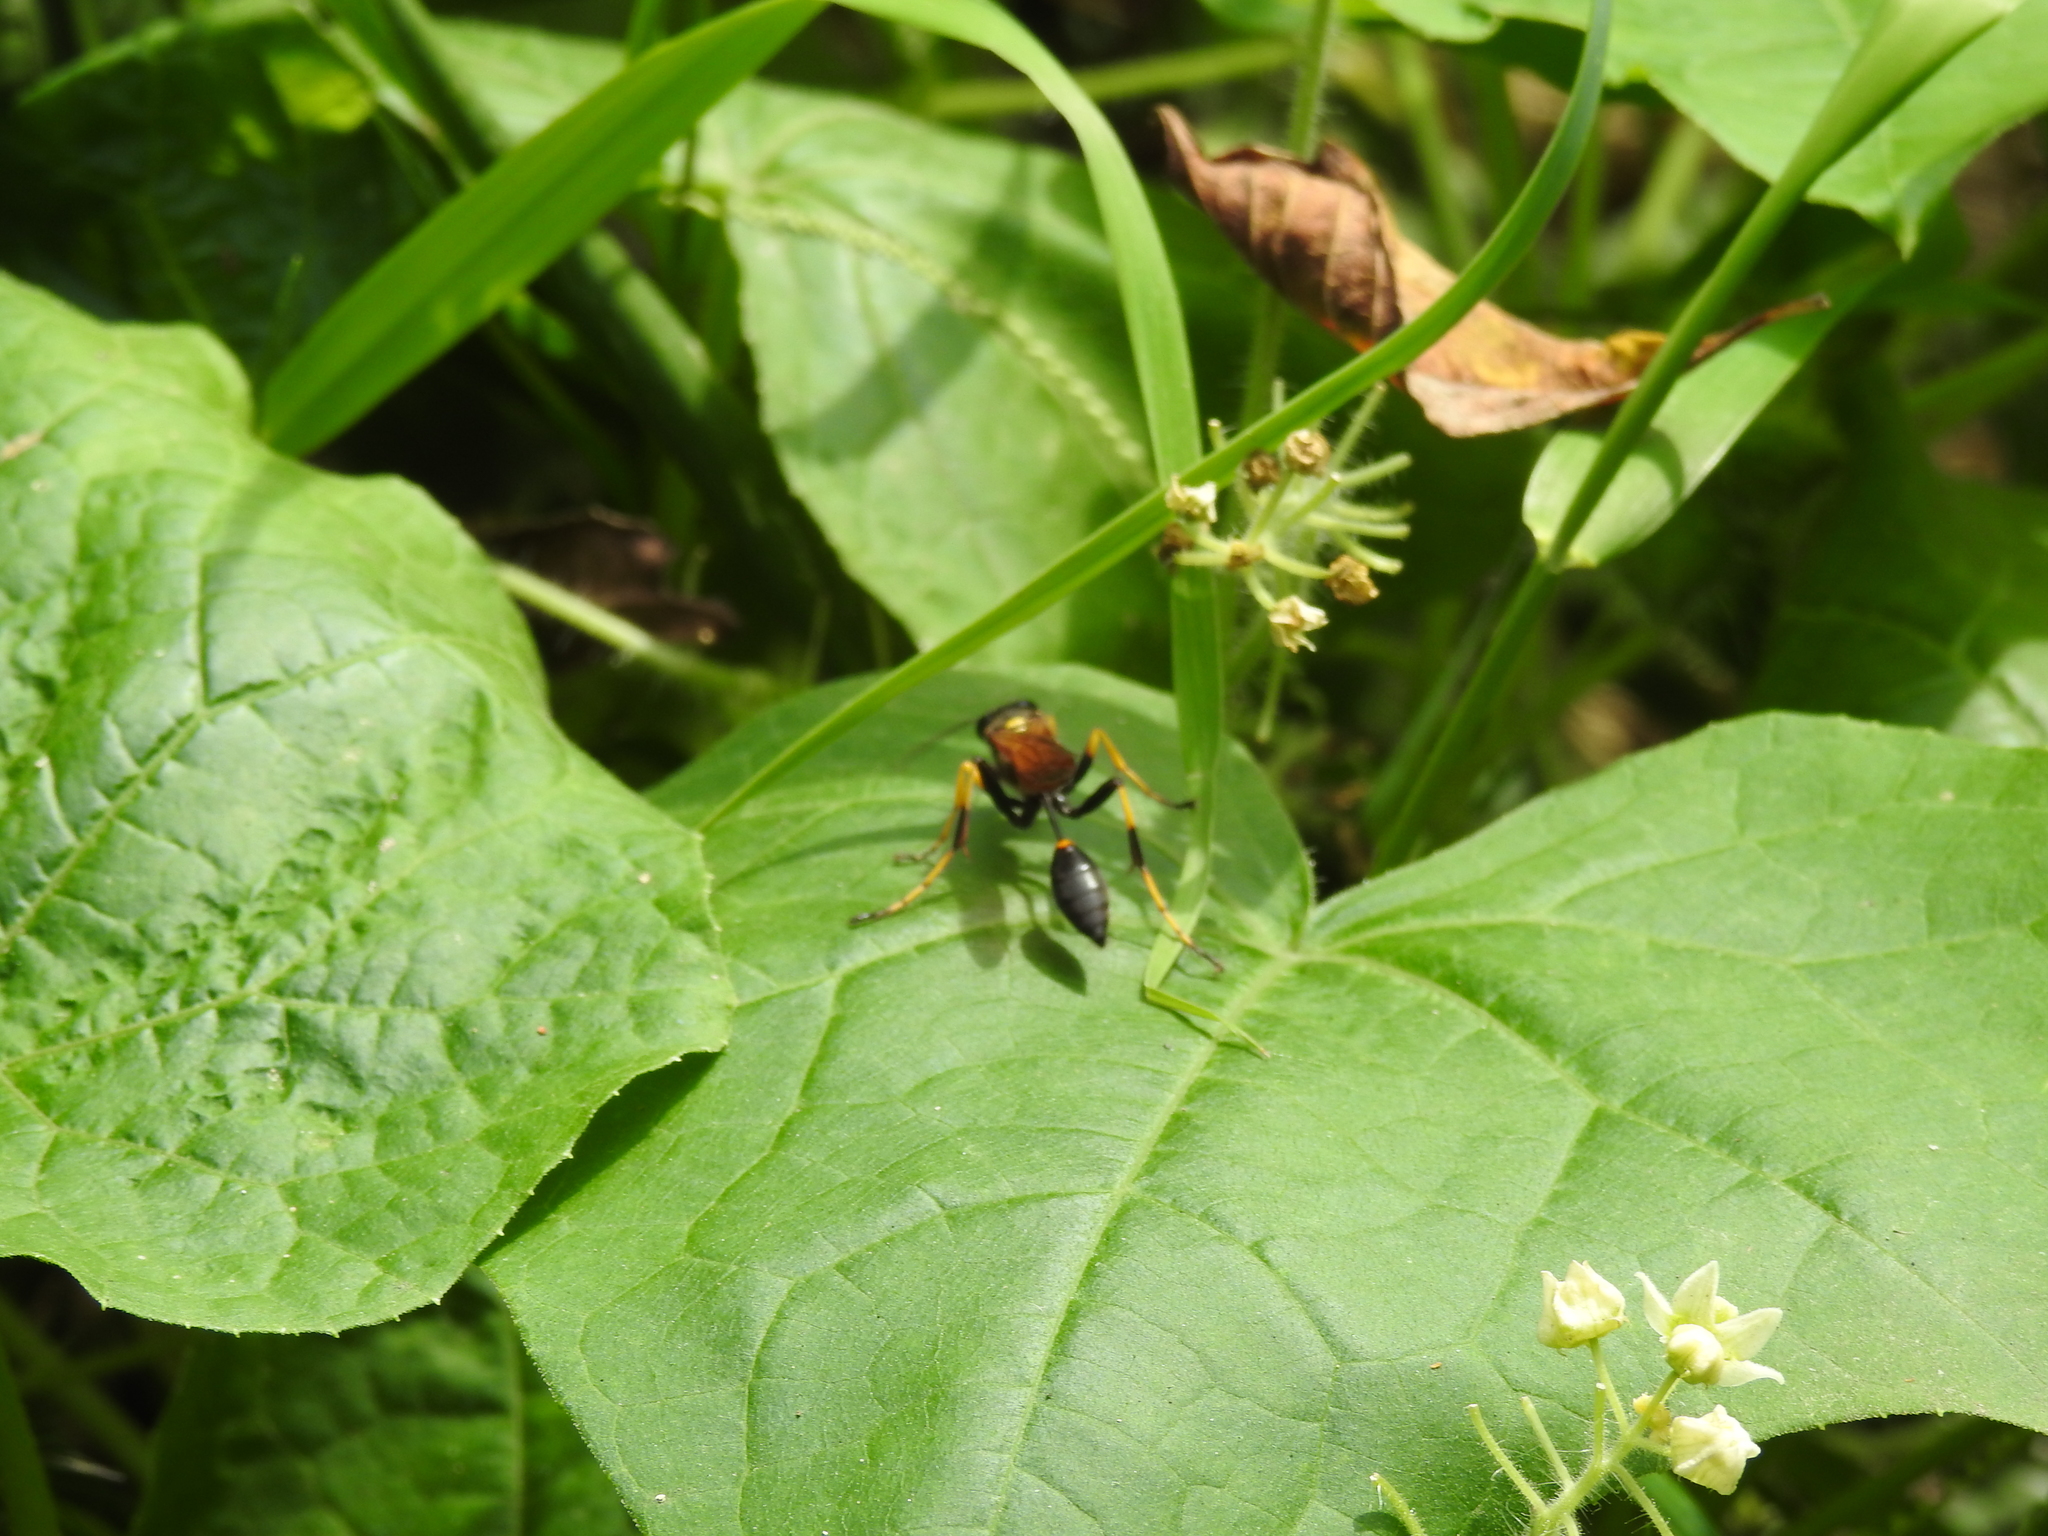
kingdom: Animalia
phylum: Arthropoda
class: Insecta
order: Hymenoptera
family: Sphecidae
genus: Sceliphron
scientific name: Sceliphron caementarium
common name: Mud dauber
